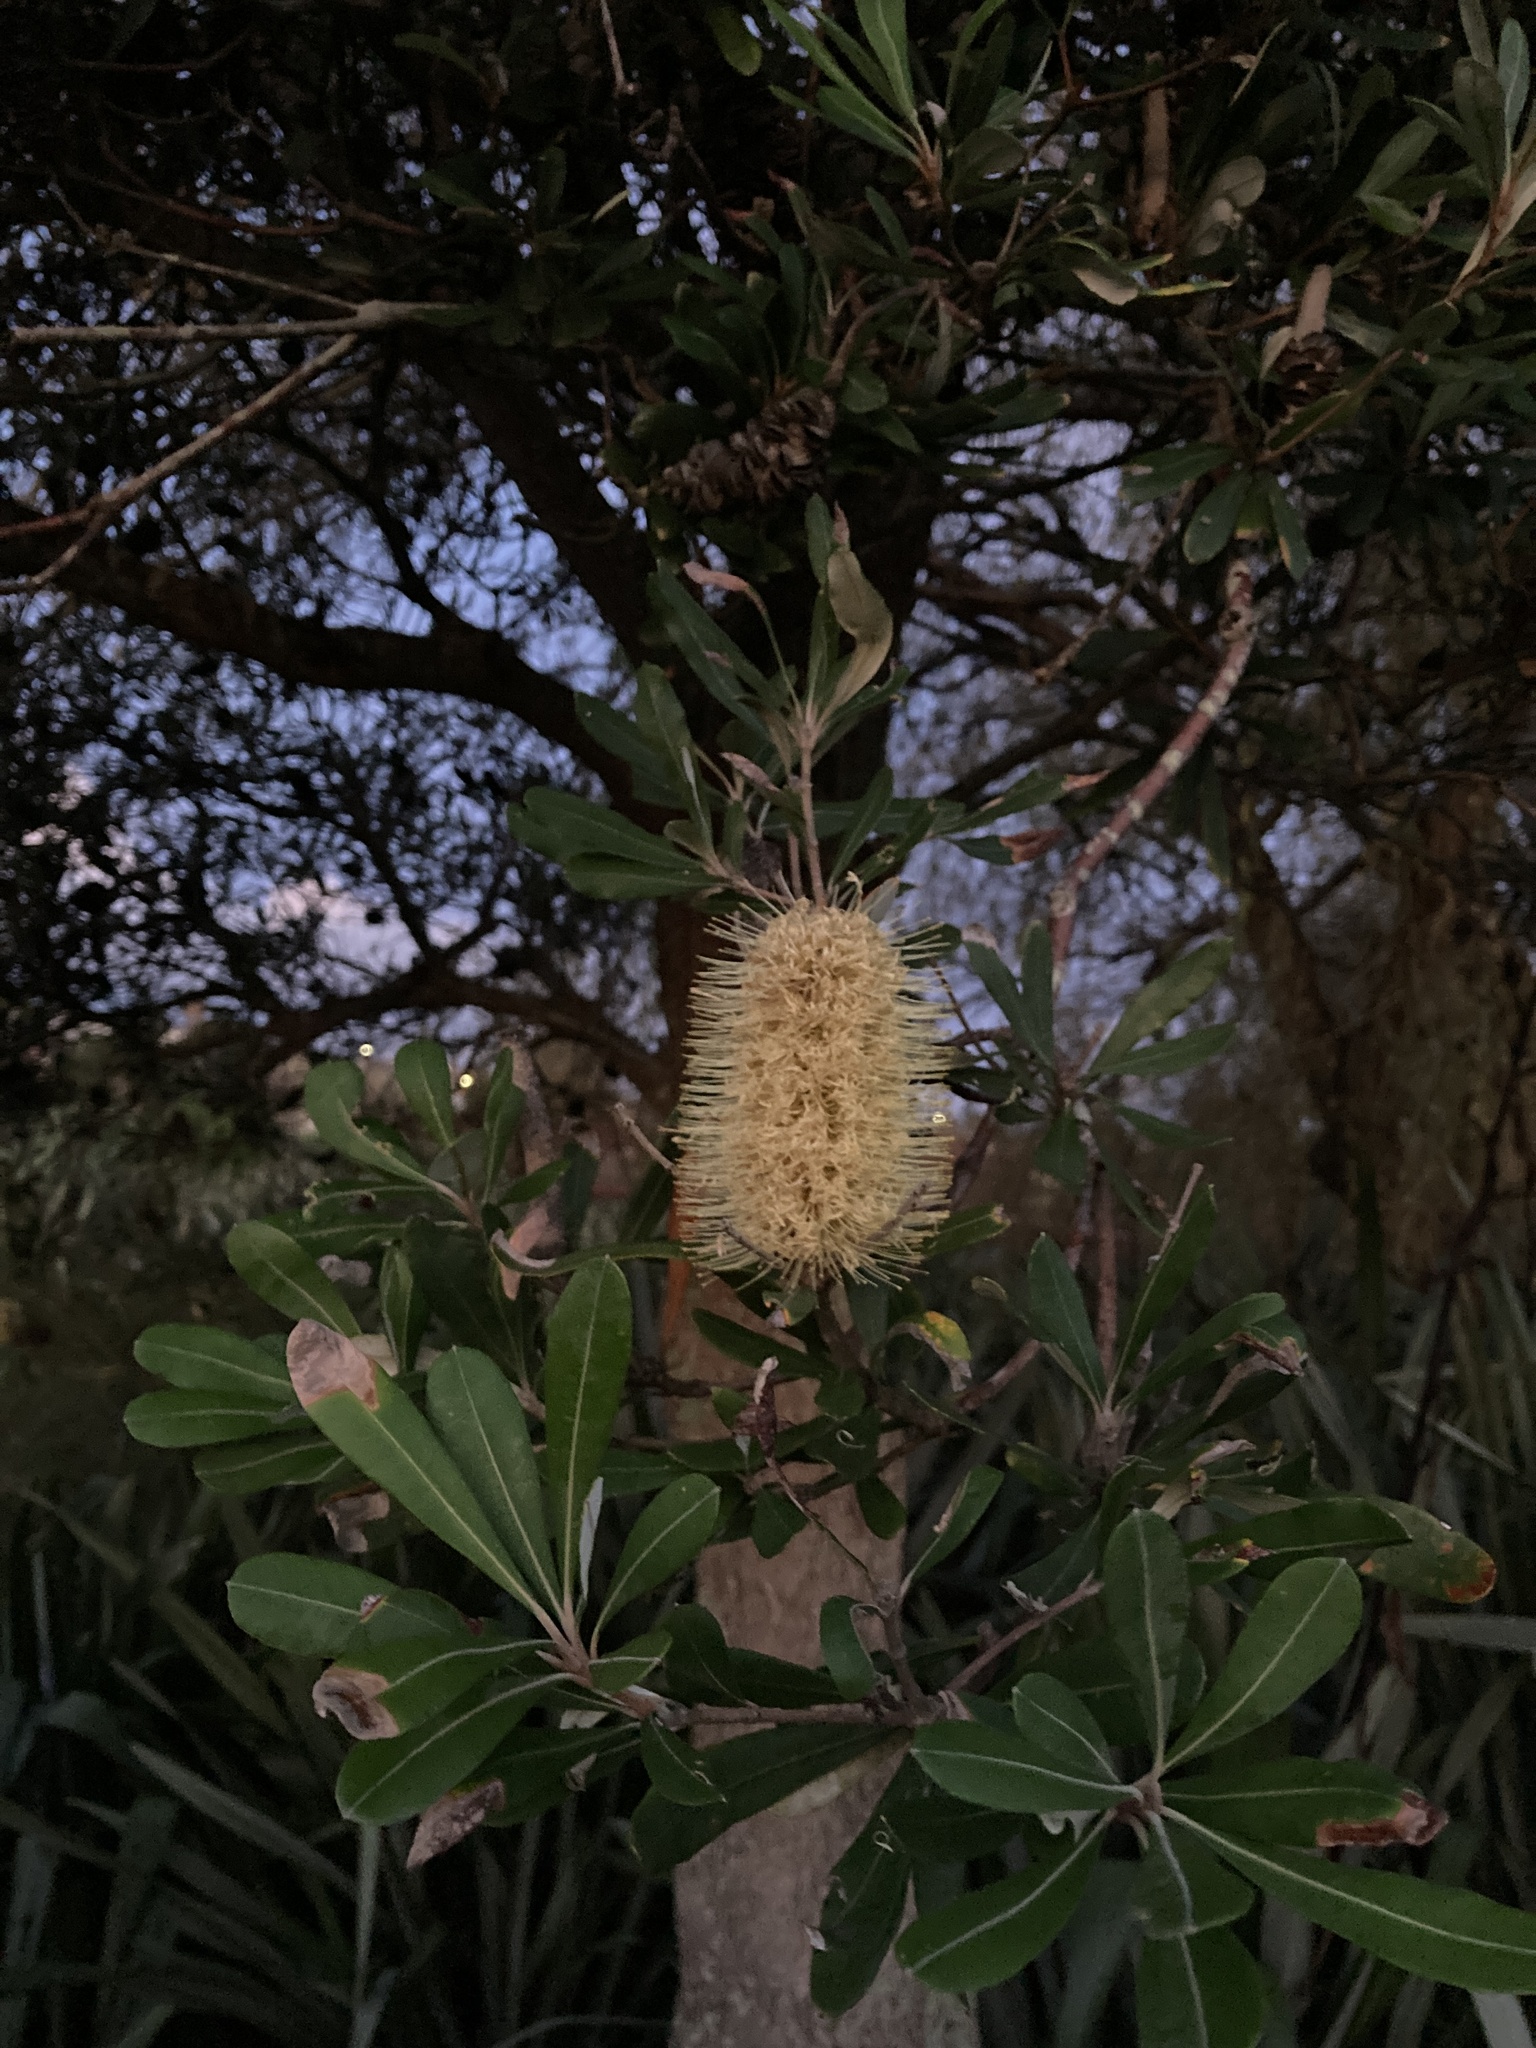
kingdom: Plantae
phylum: Tracheophyta
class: Magnoliopsida
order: Proteales
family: Proteaceae
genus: Banksia
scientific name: Banksia integrifolia
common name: White-honeysuckle
